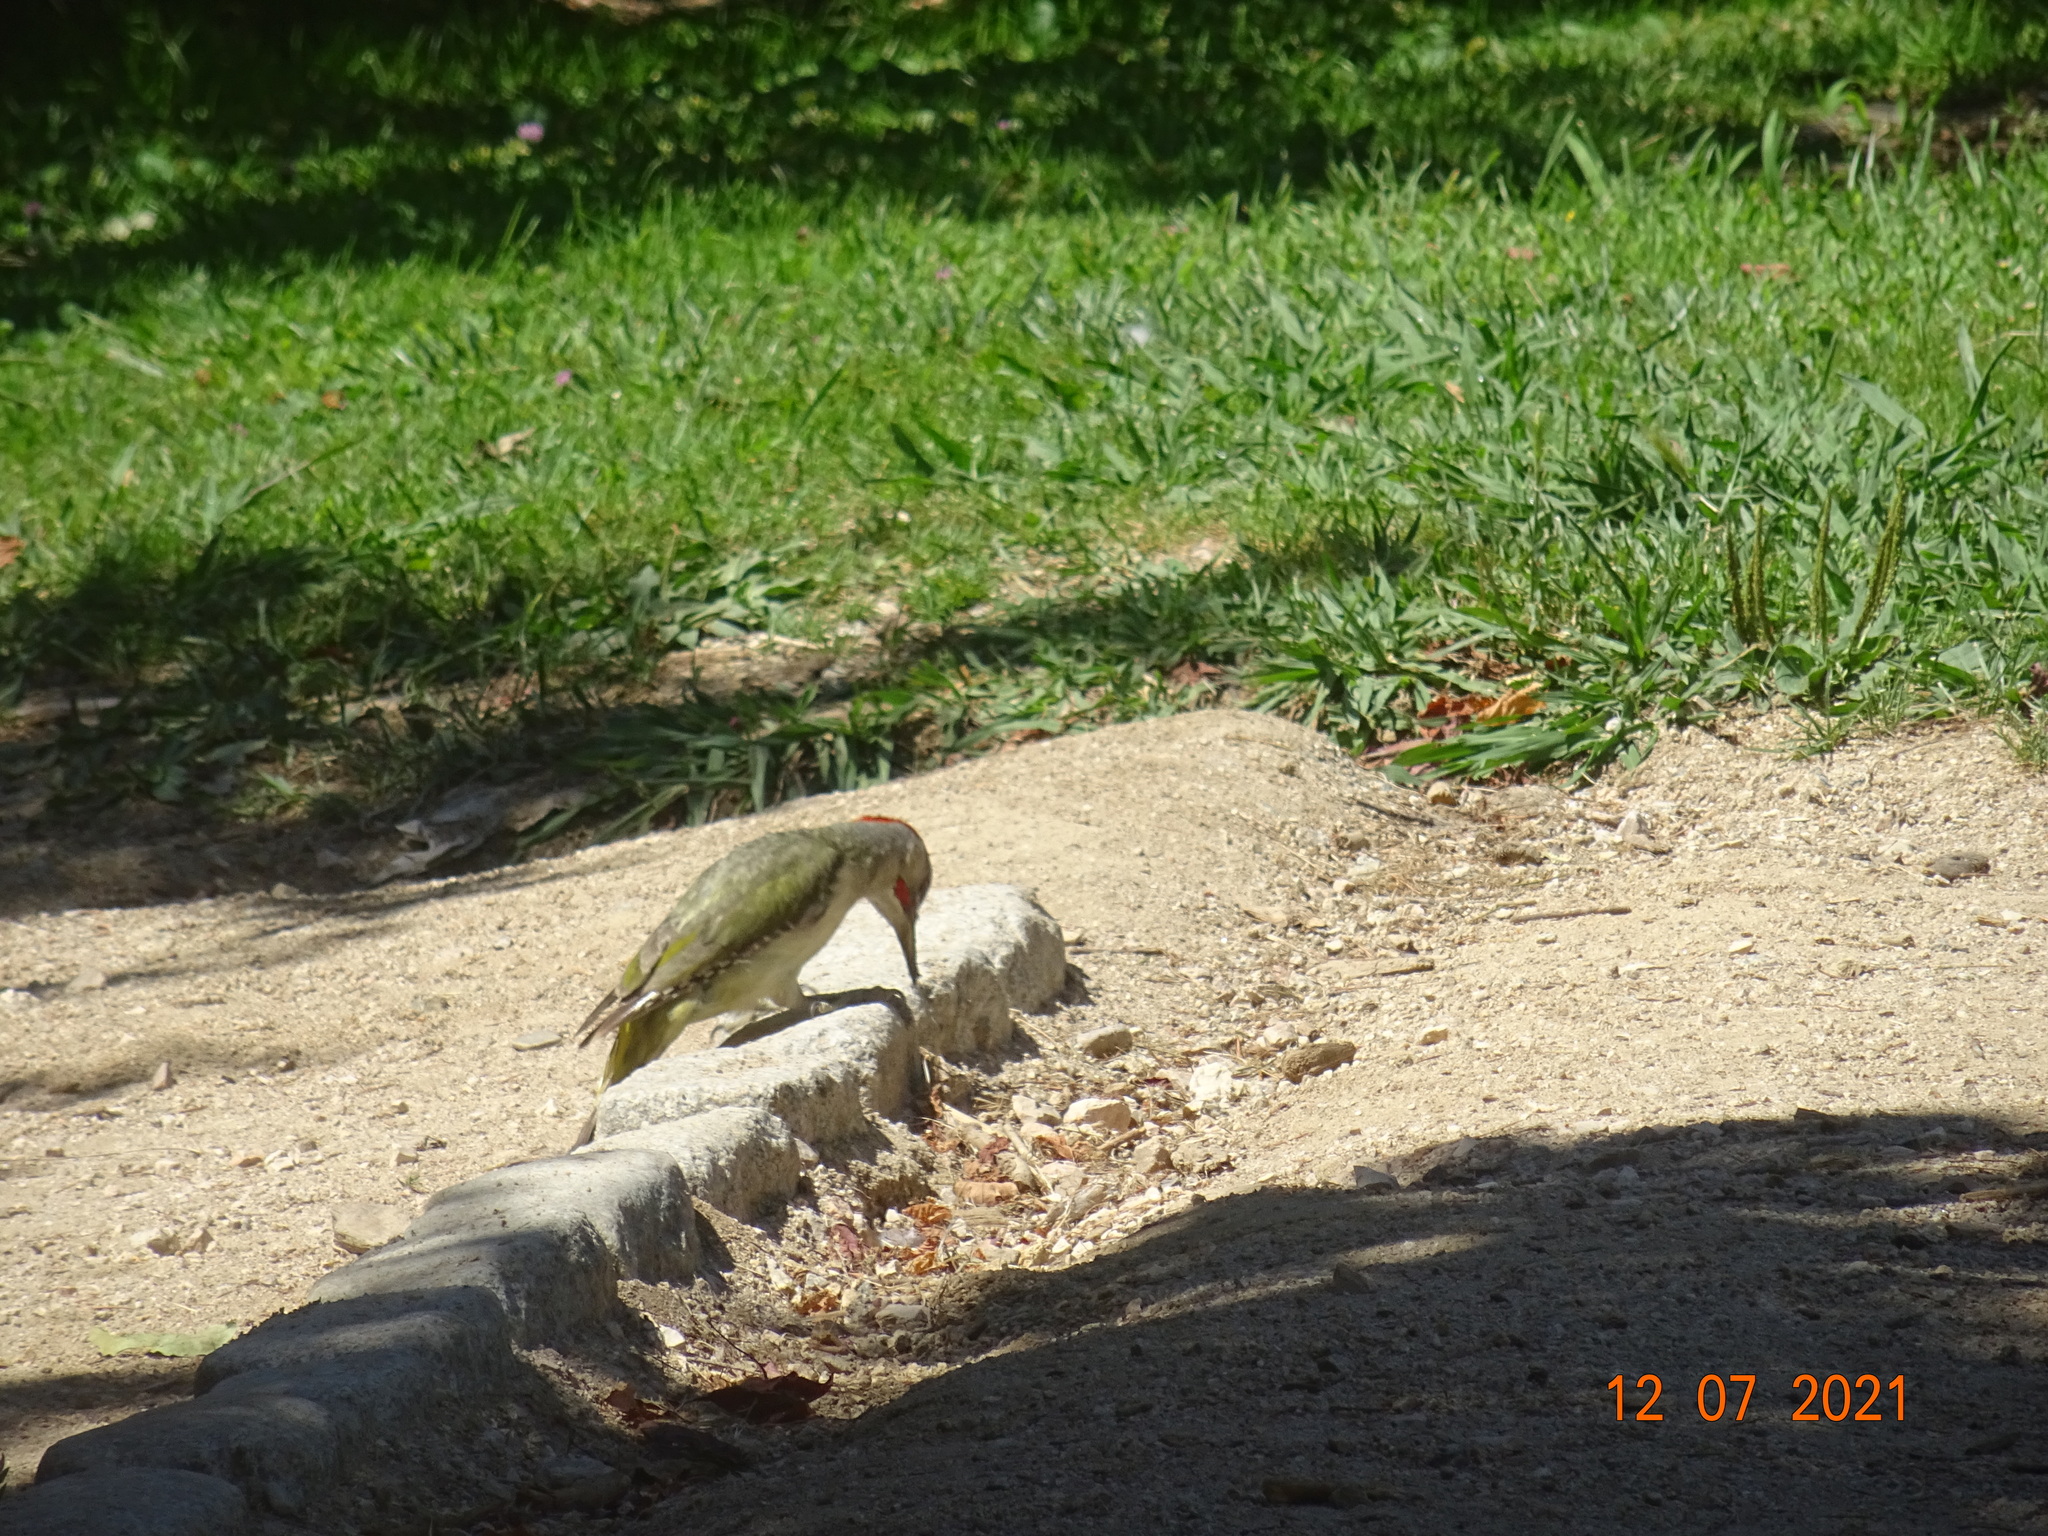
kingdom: Animalia
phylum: Chordata
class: Aves
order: Piciformes
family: Picidae
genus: Picus
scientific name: Picus sharpei
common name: Iberian green woodpecker
